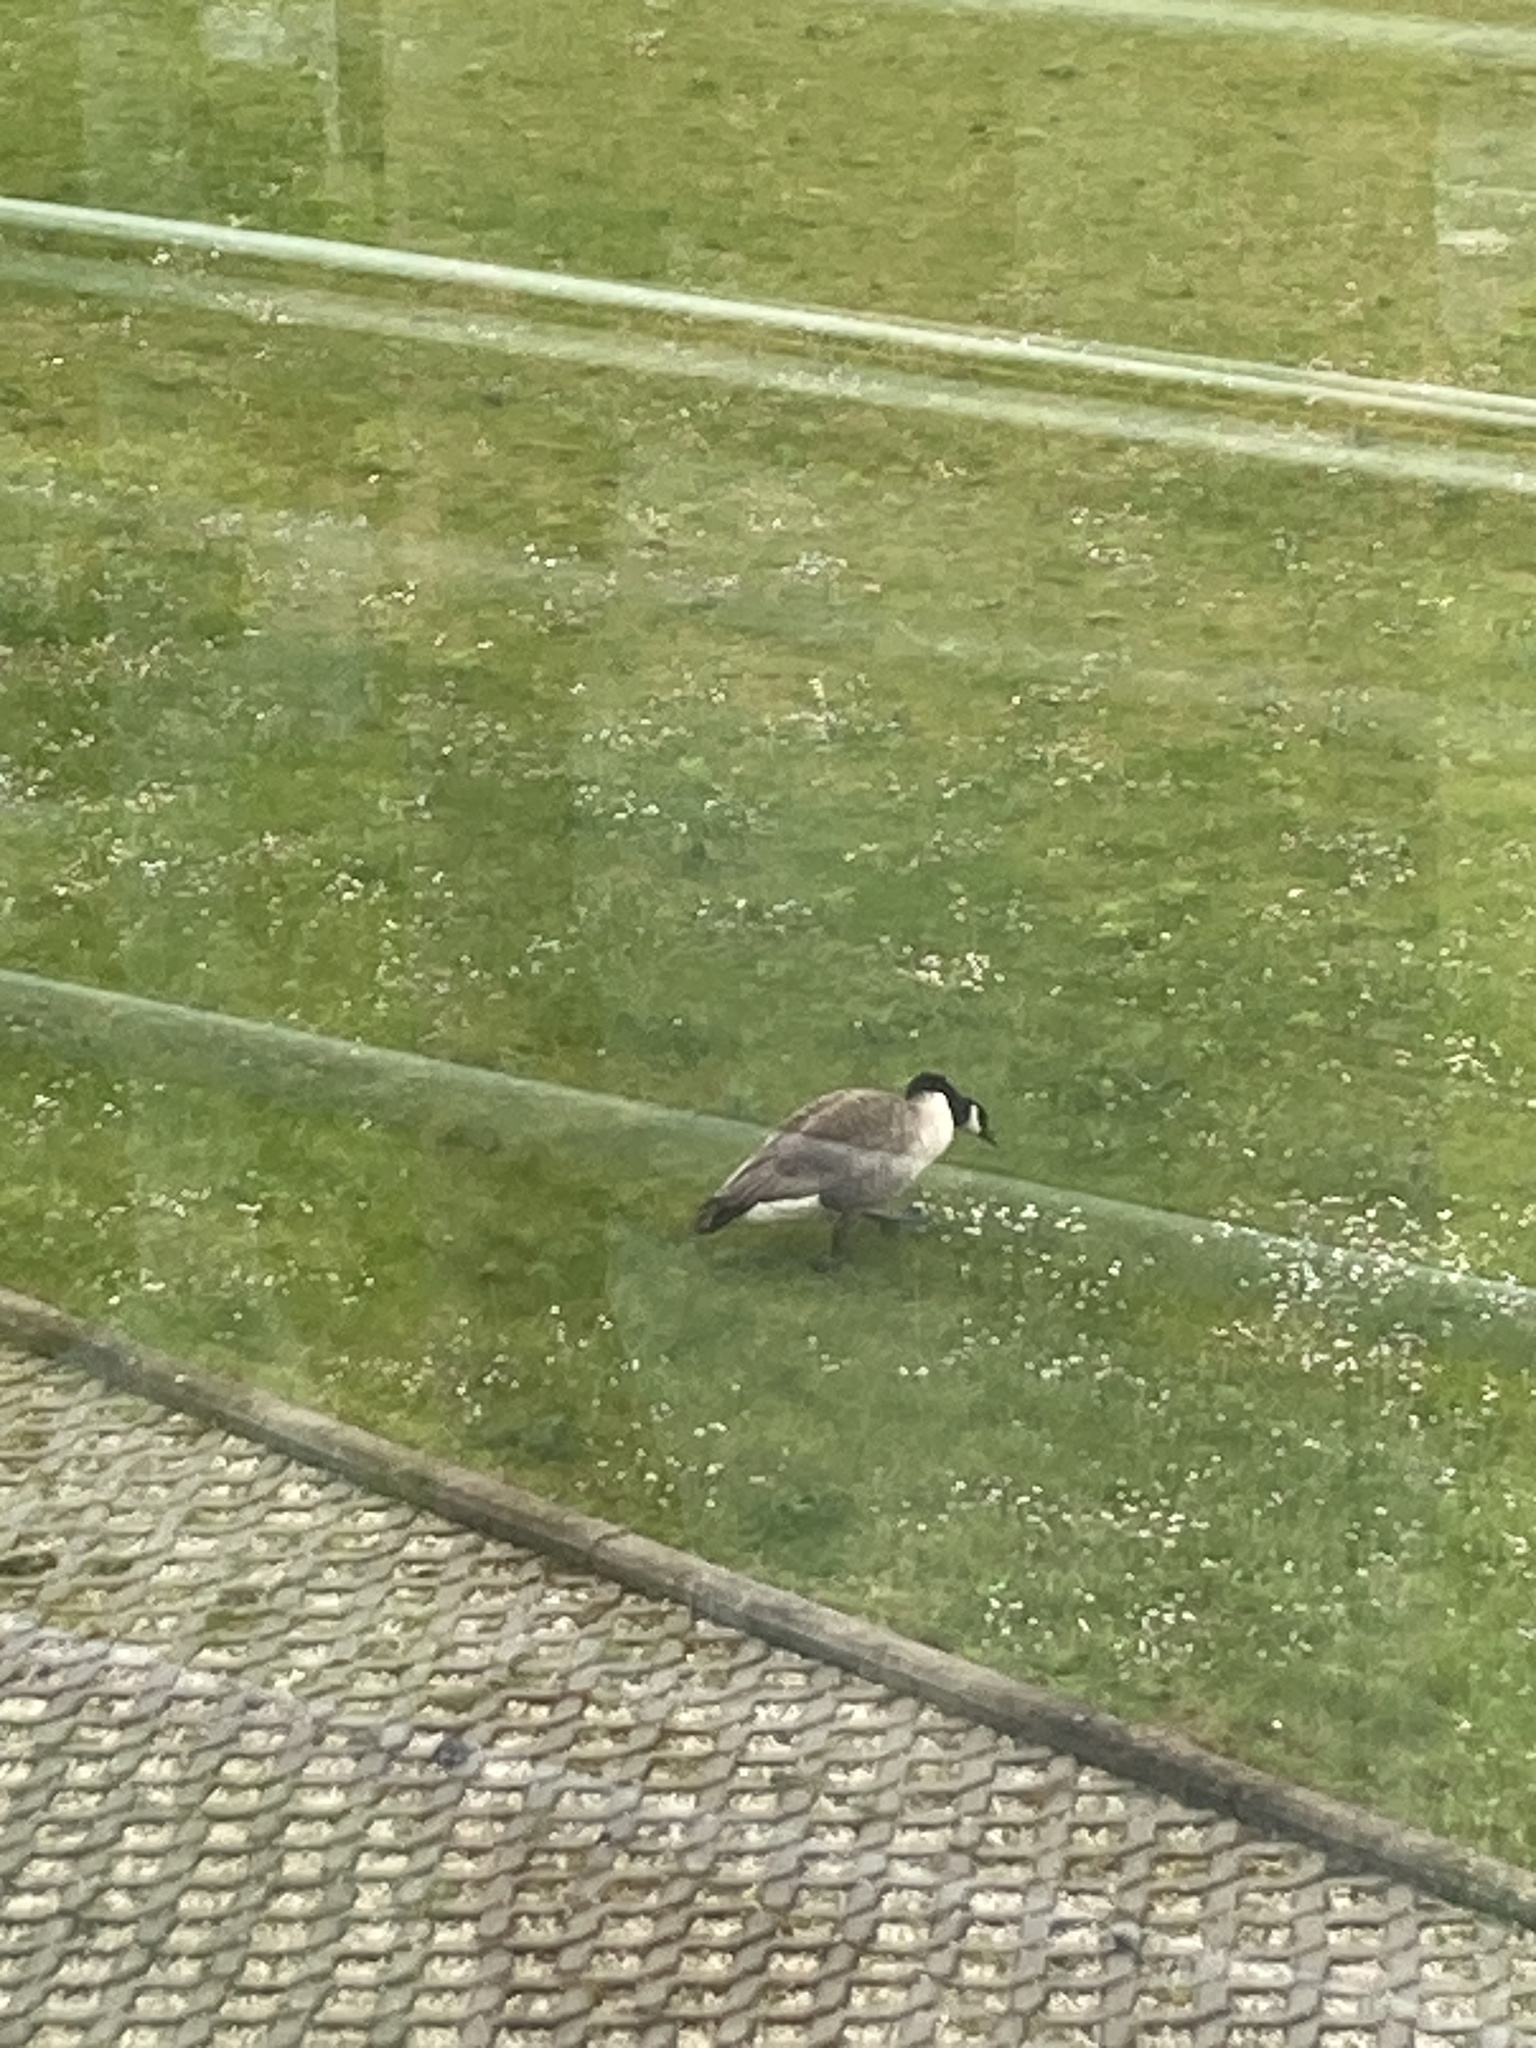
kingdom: Animalia
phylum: Chordata
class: Aves
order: Anseriformes
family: Anatidae
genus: Branta
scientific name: Branta canadensis
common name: Canada goose
